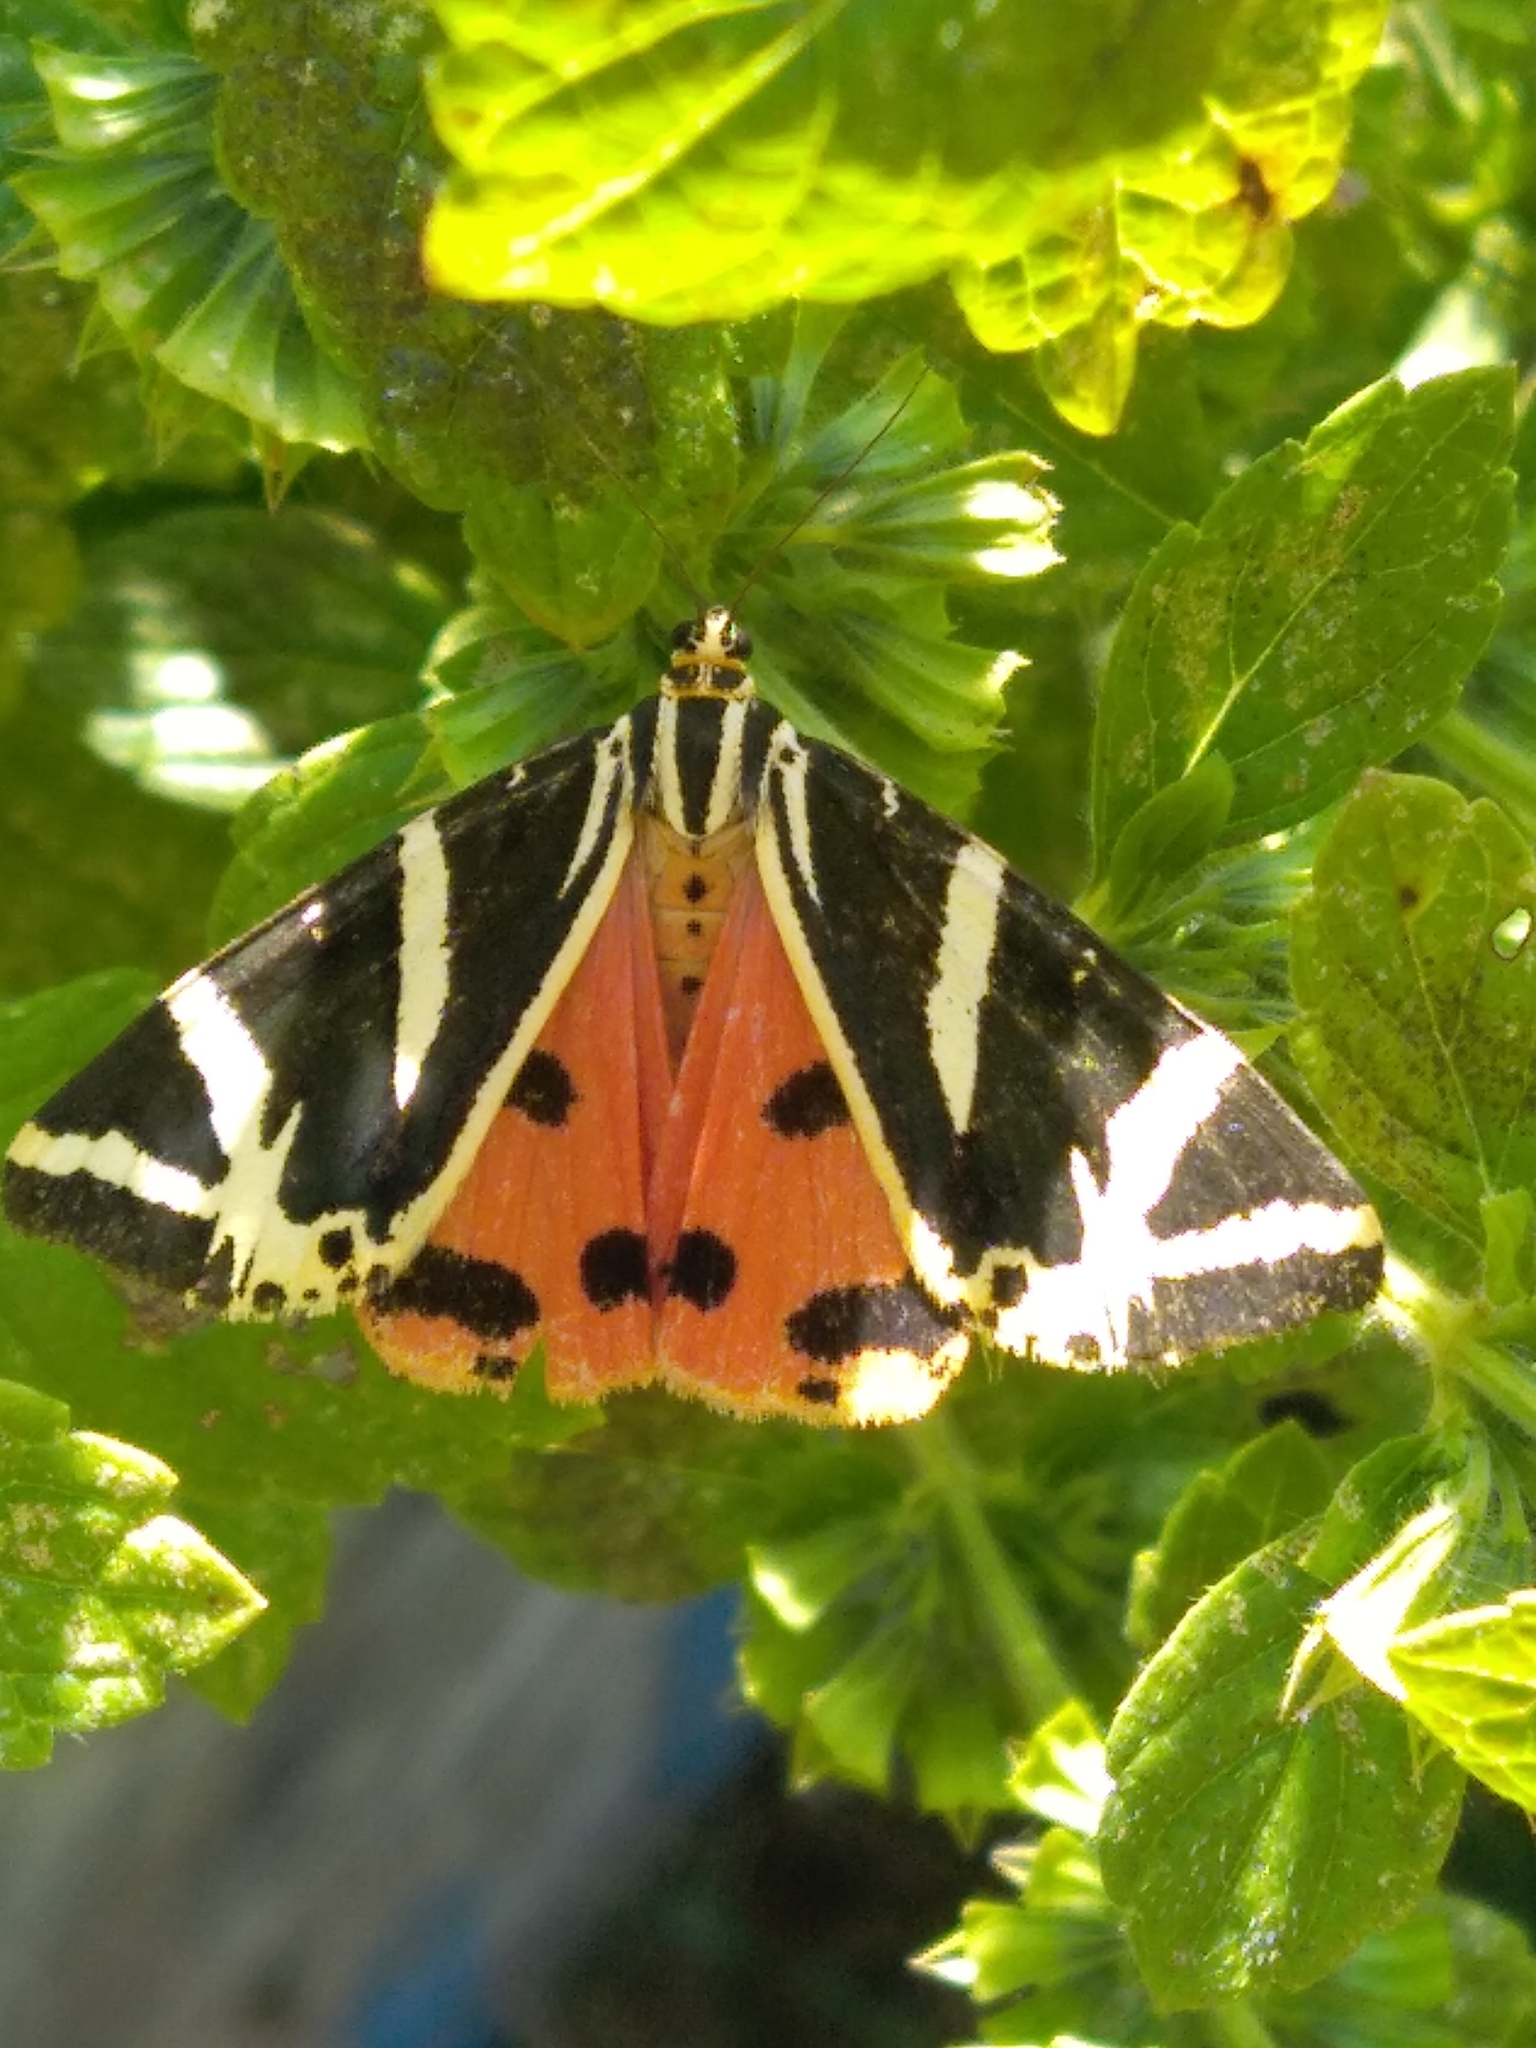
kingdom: Animalia
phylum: Arthropoda
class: Insecta
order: Lepidoptera
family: Erebidae
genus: Euplagia
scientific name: Euplagia quadripunctaria
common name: Jersey tiger
